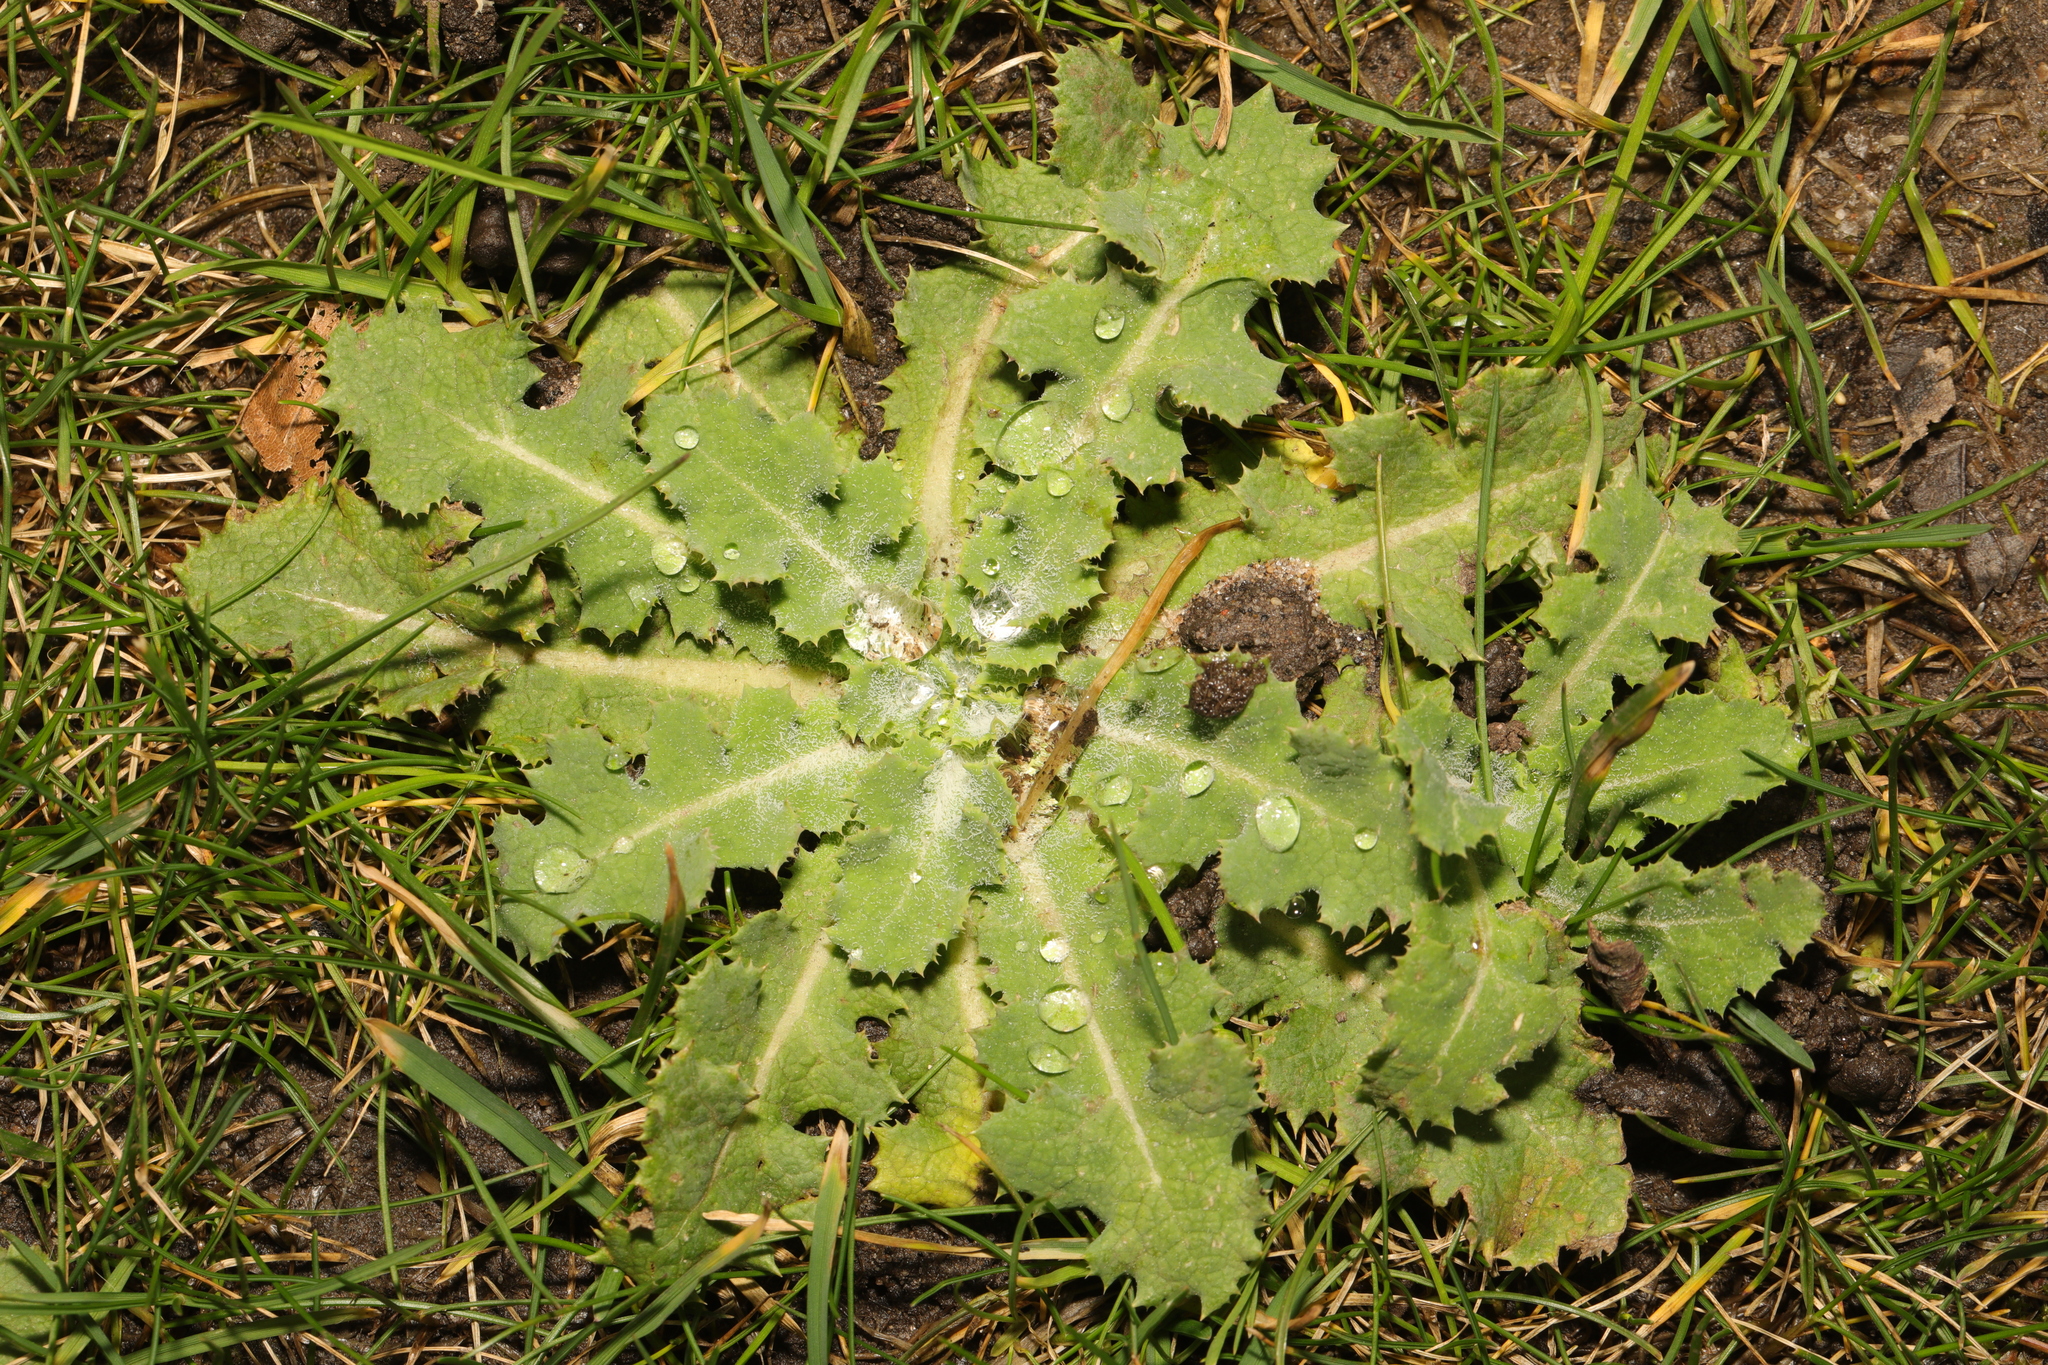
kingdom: Plantae
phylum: Tracheophyta
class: Magnoliopsida
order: Asterales
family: Asteraceae
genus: Sonchus
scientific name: Sonchus asper
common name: Prickly sow-thistle
